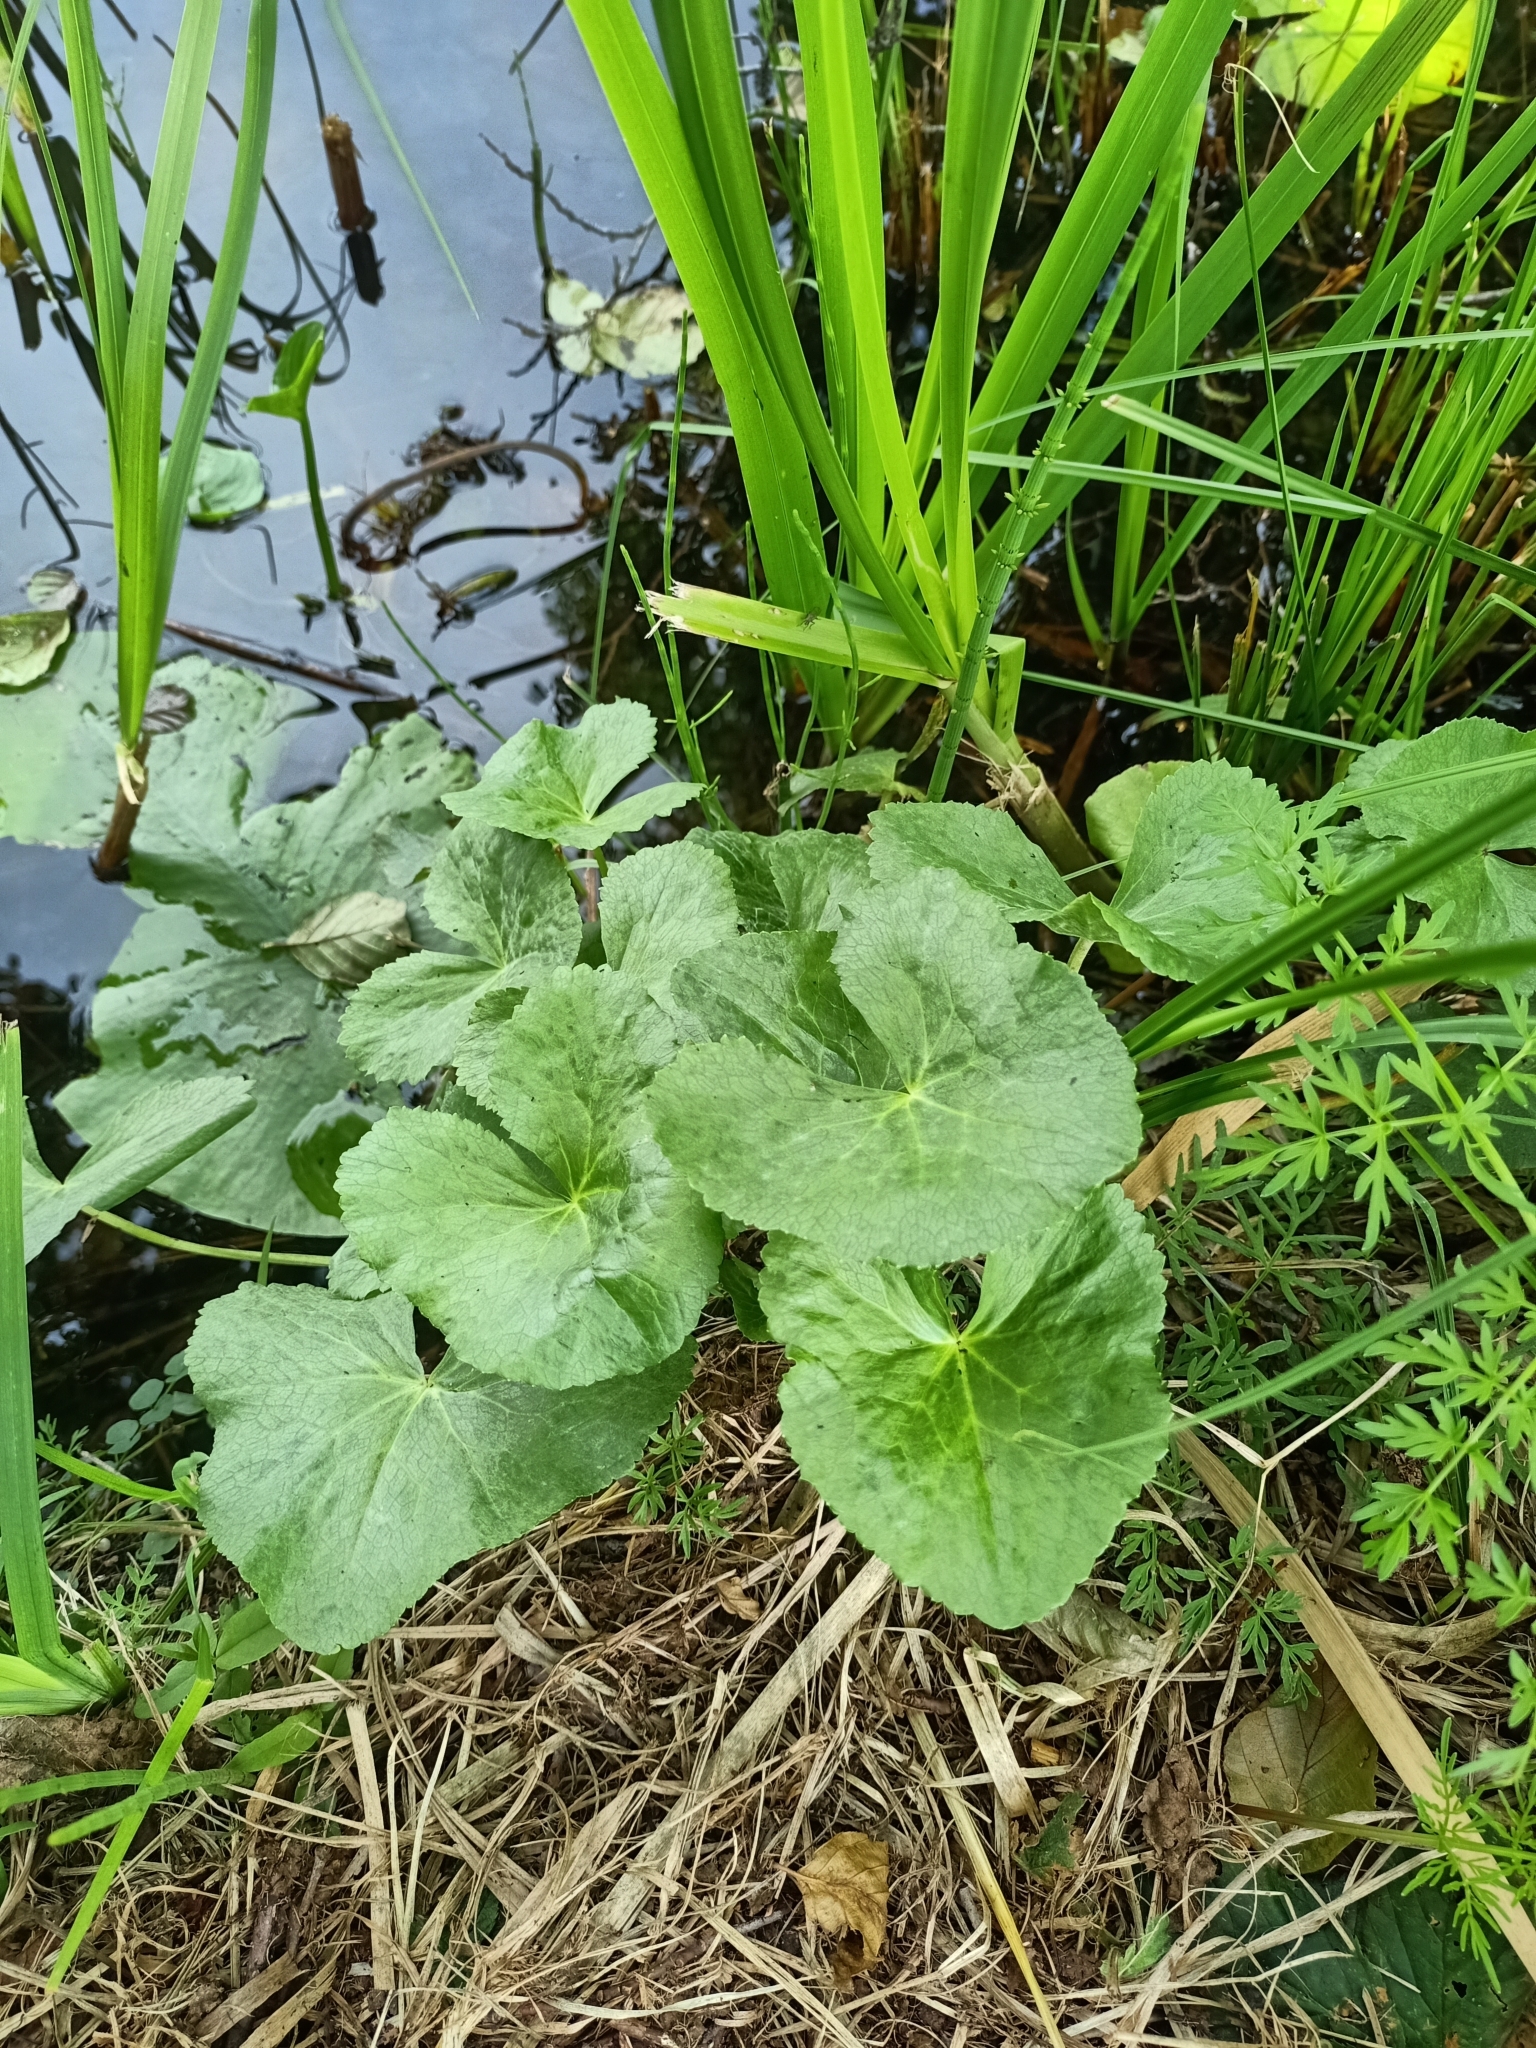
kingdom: Plantae
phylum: Tracheophyta
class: Magnoliopsida
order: Ranunculales
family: Ranunculaceae
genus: Caltha
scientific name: Caltha palustris
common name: Marsh marigold
